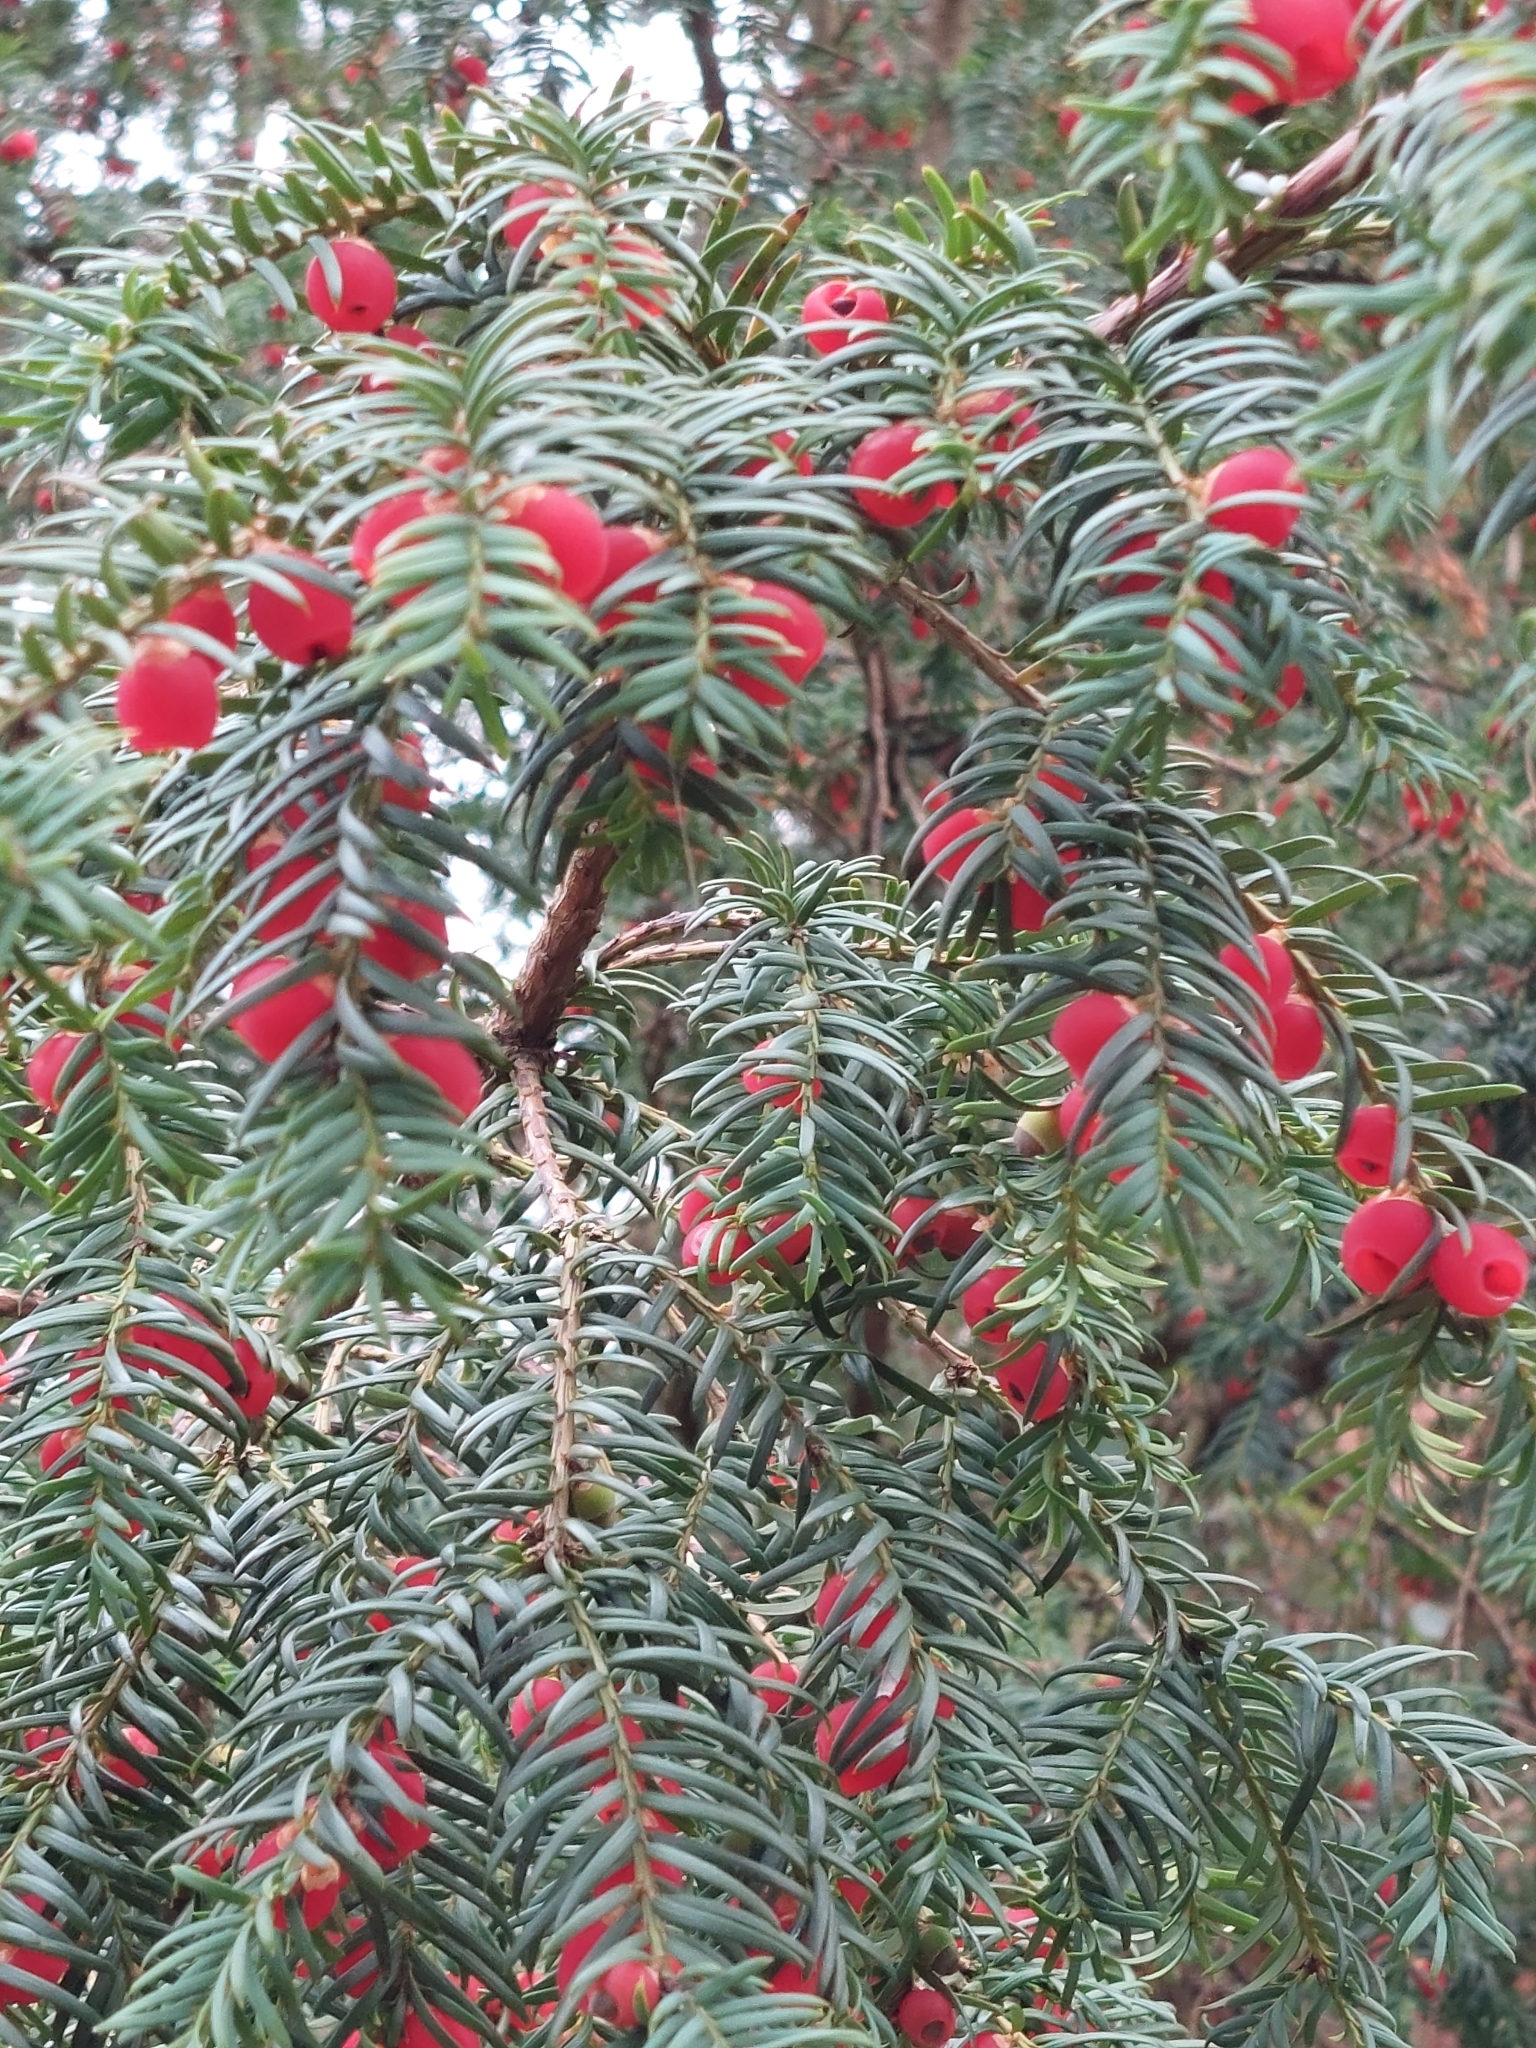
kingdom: Plantae
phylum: Tracheophyta
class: Pinopsida
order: Pinales
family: Taxaceae
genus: Taxus
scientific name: Taxus baccata
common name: Yew
